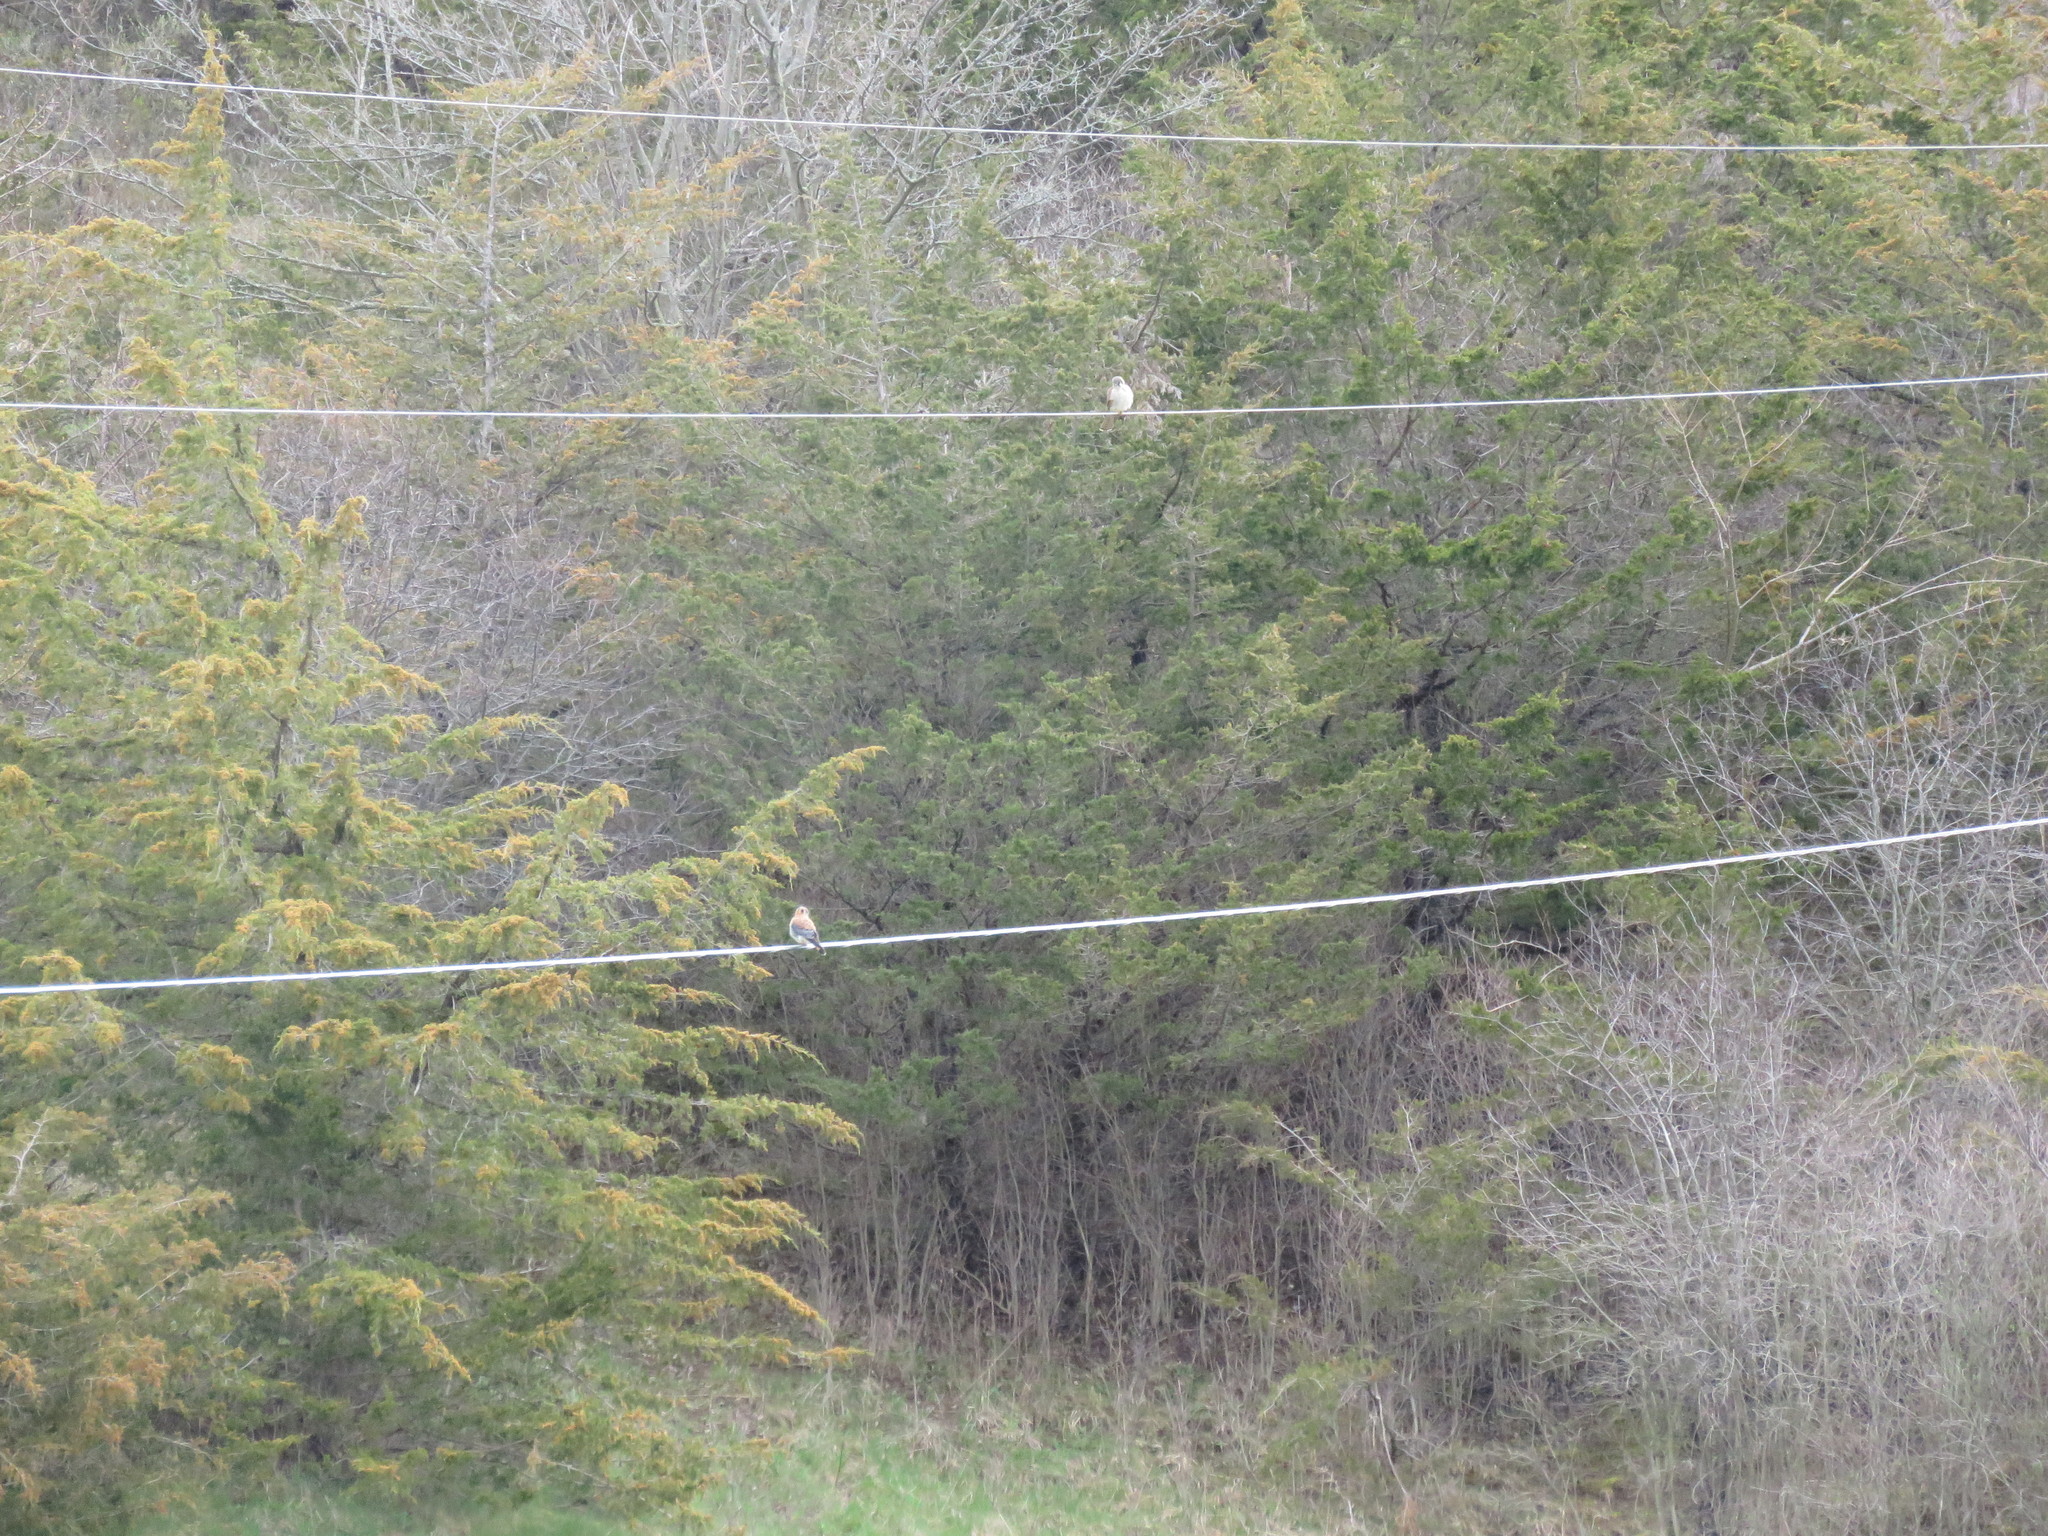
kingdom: Animalia
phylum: Chordata
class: Aves
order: Falconiformes
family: Falconidae
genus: Falco
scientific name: Falco sparverius
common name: American kestrel
